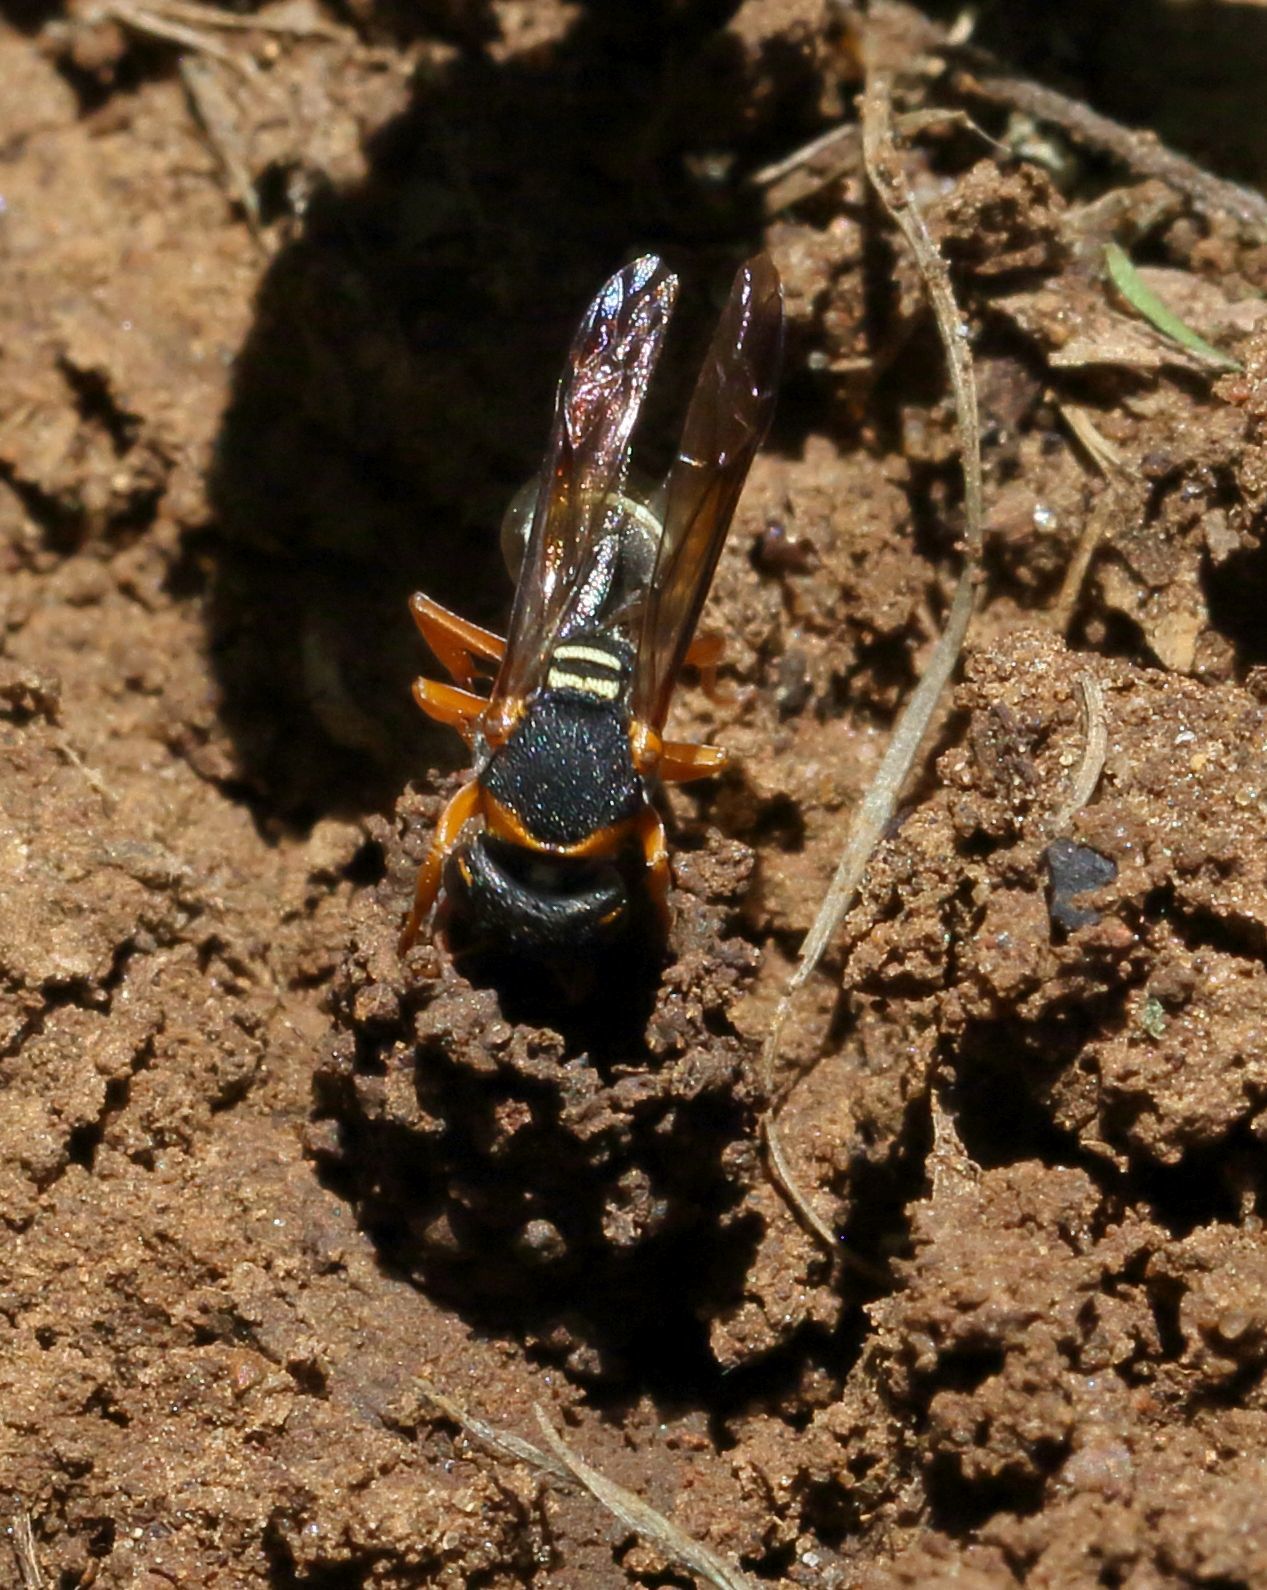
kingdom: Animalia
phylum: Arthropoda
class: Insecta
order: Hymenoptera
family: Eumenidae
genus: Antepipona
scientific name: Antepipona
